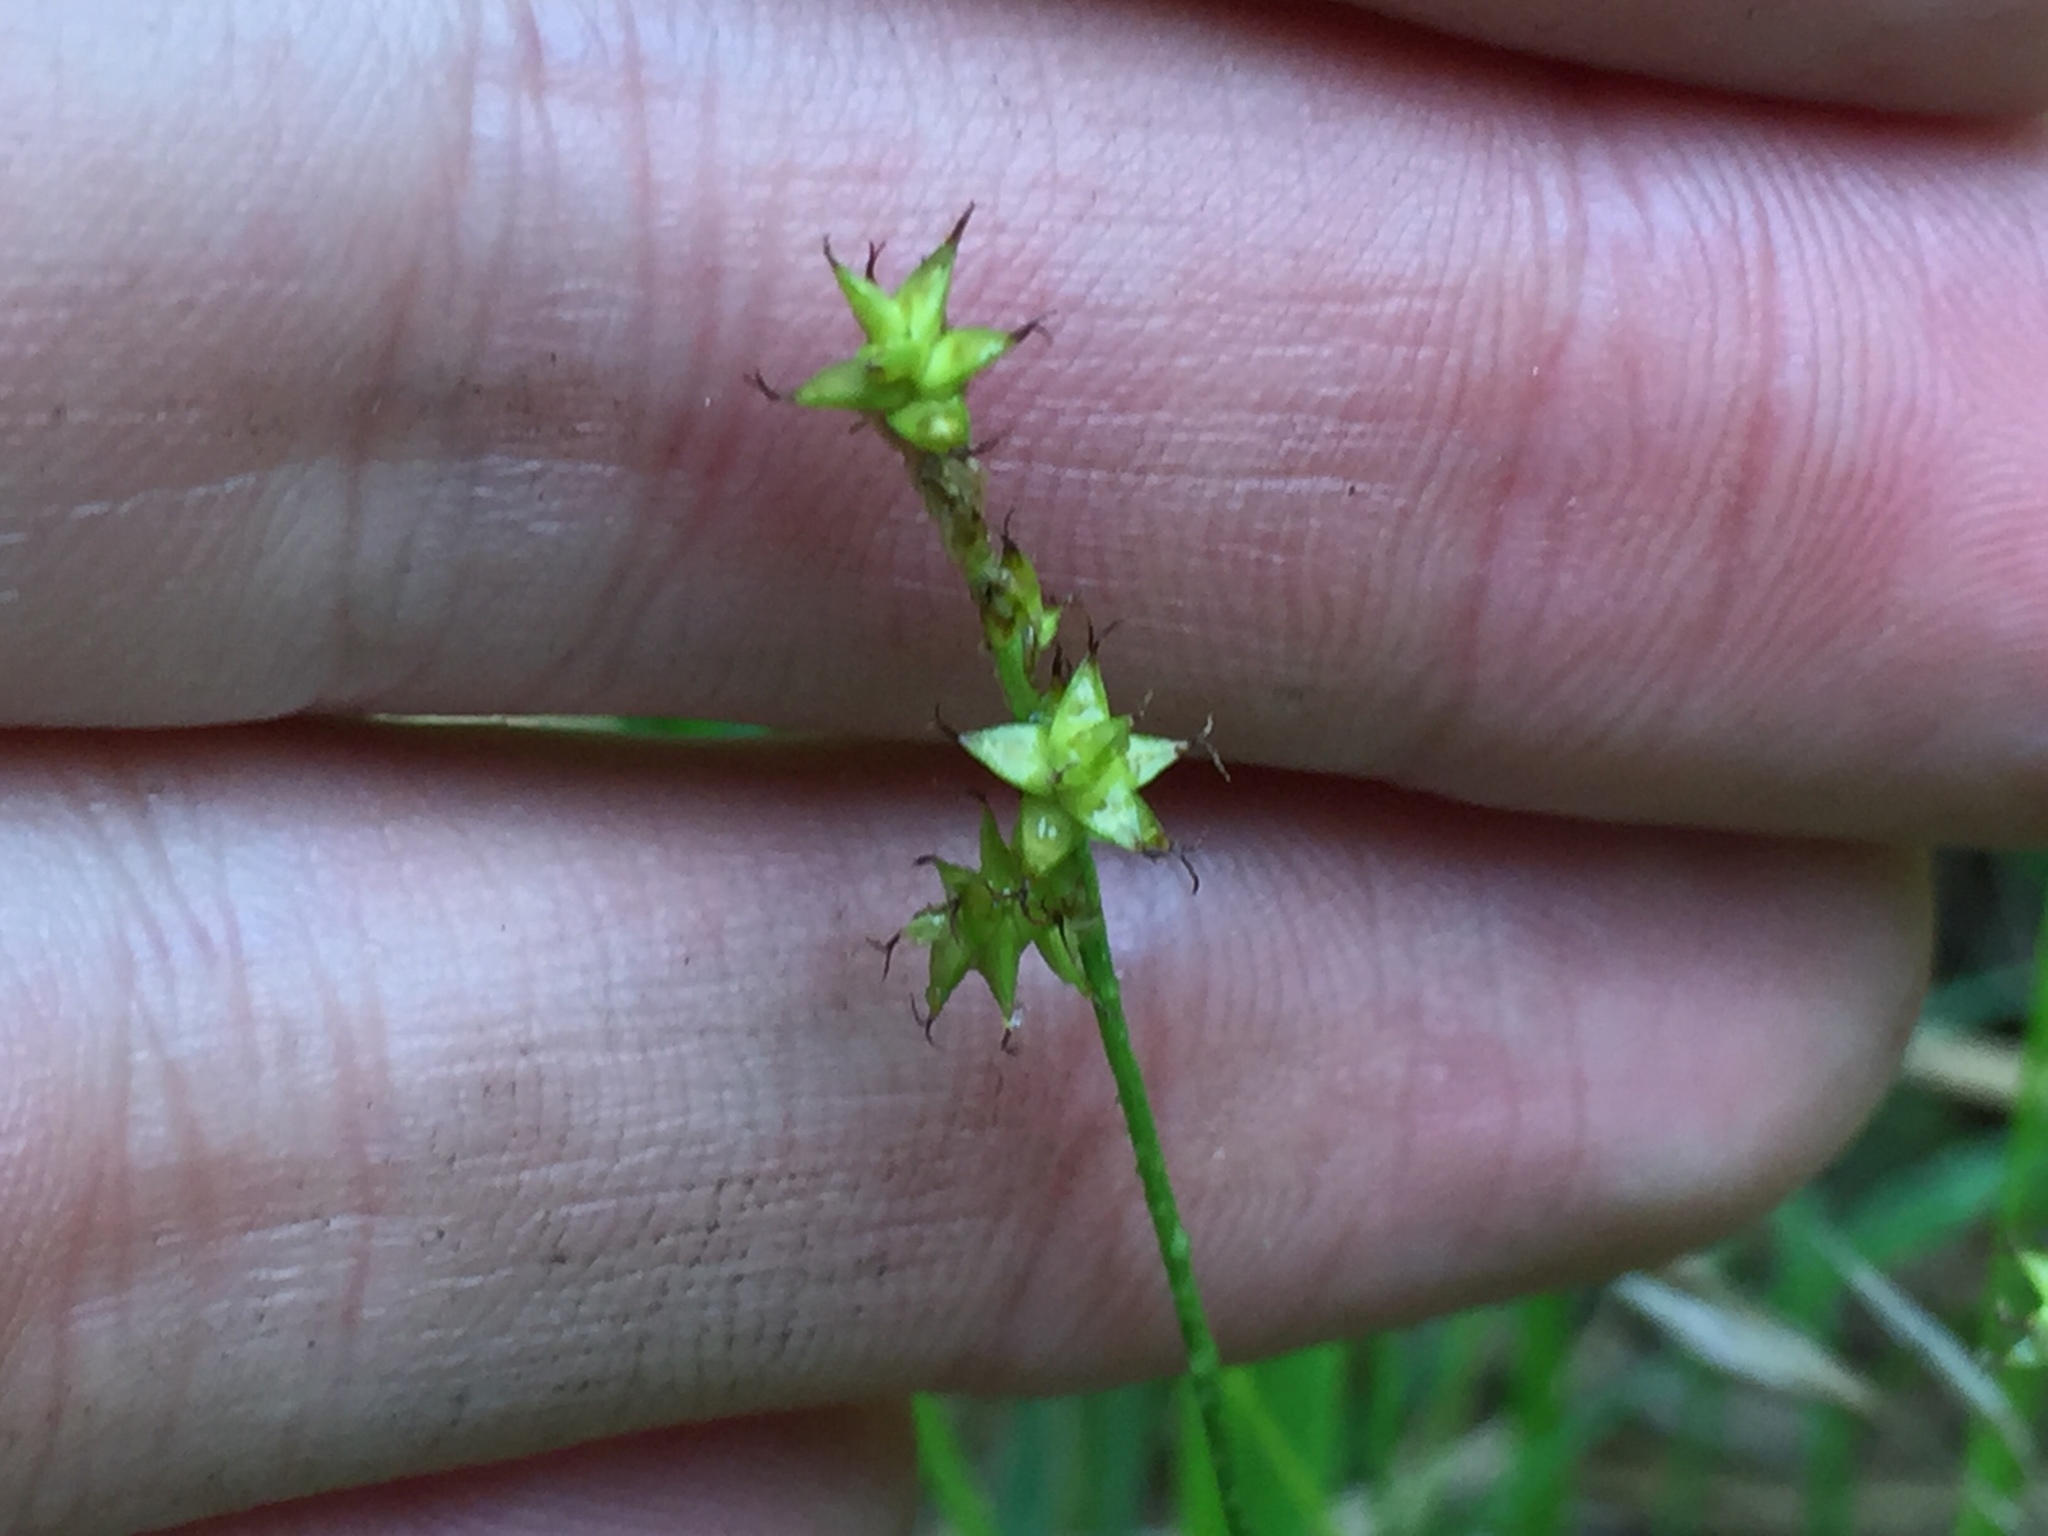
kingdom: Plantae
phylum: Tracheophyta
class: Liliopsida
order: Poales
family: Cyperaceae
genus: Carex
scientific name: Carex interior
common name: Inland sedge
